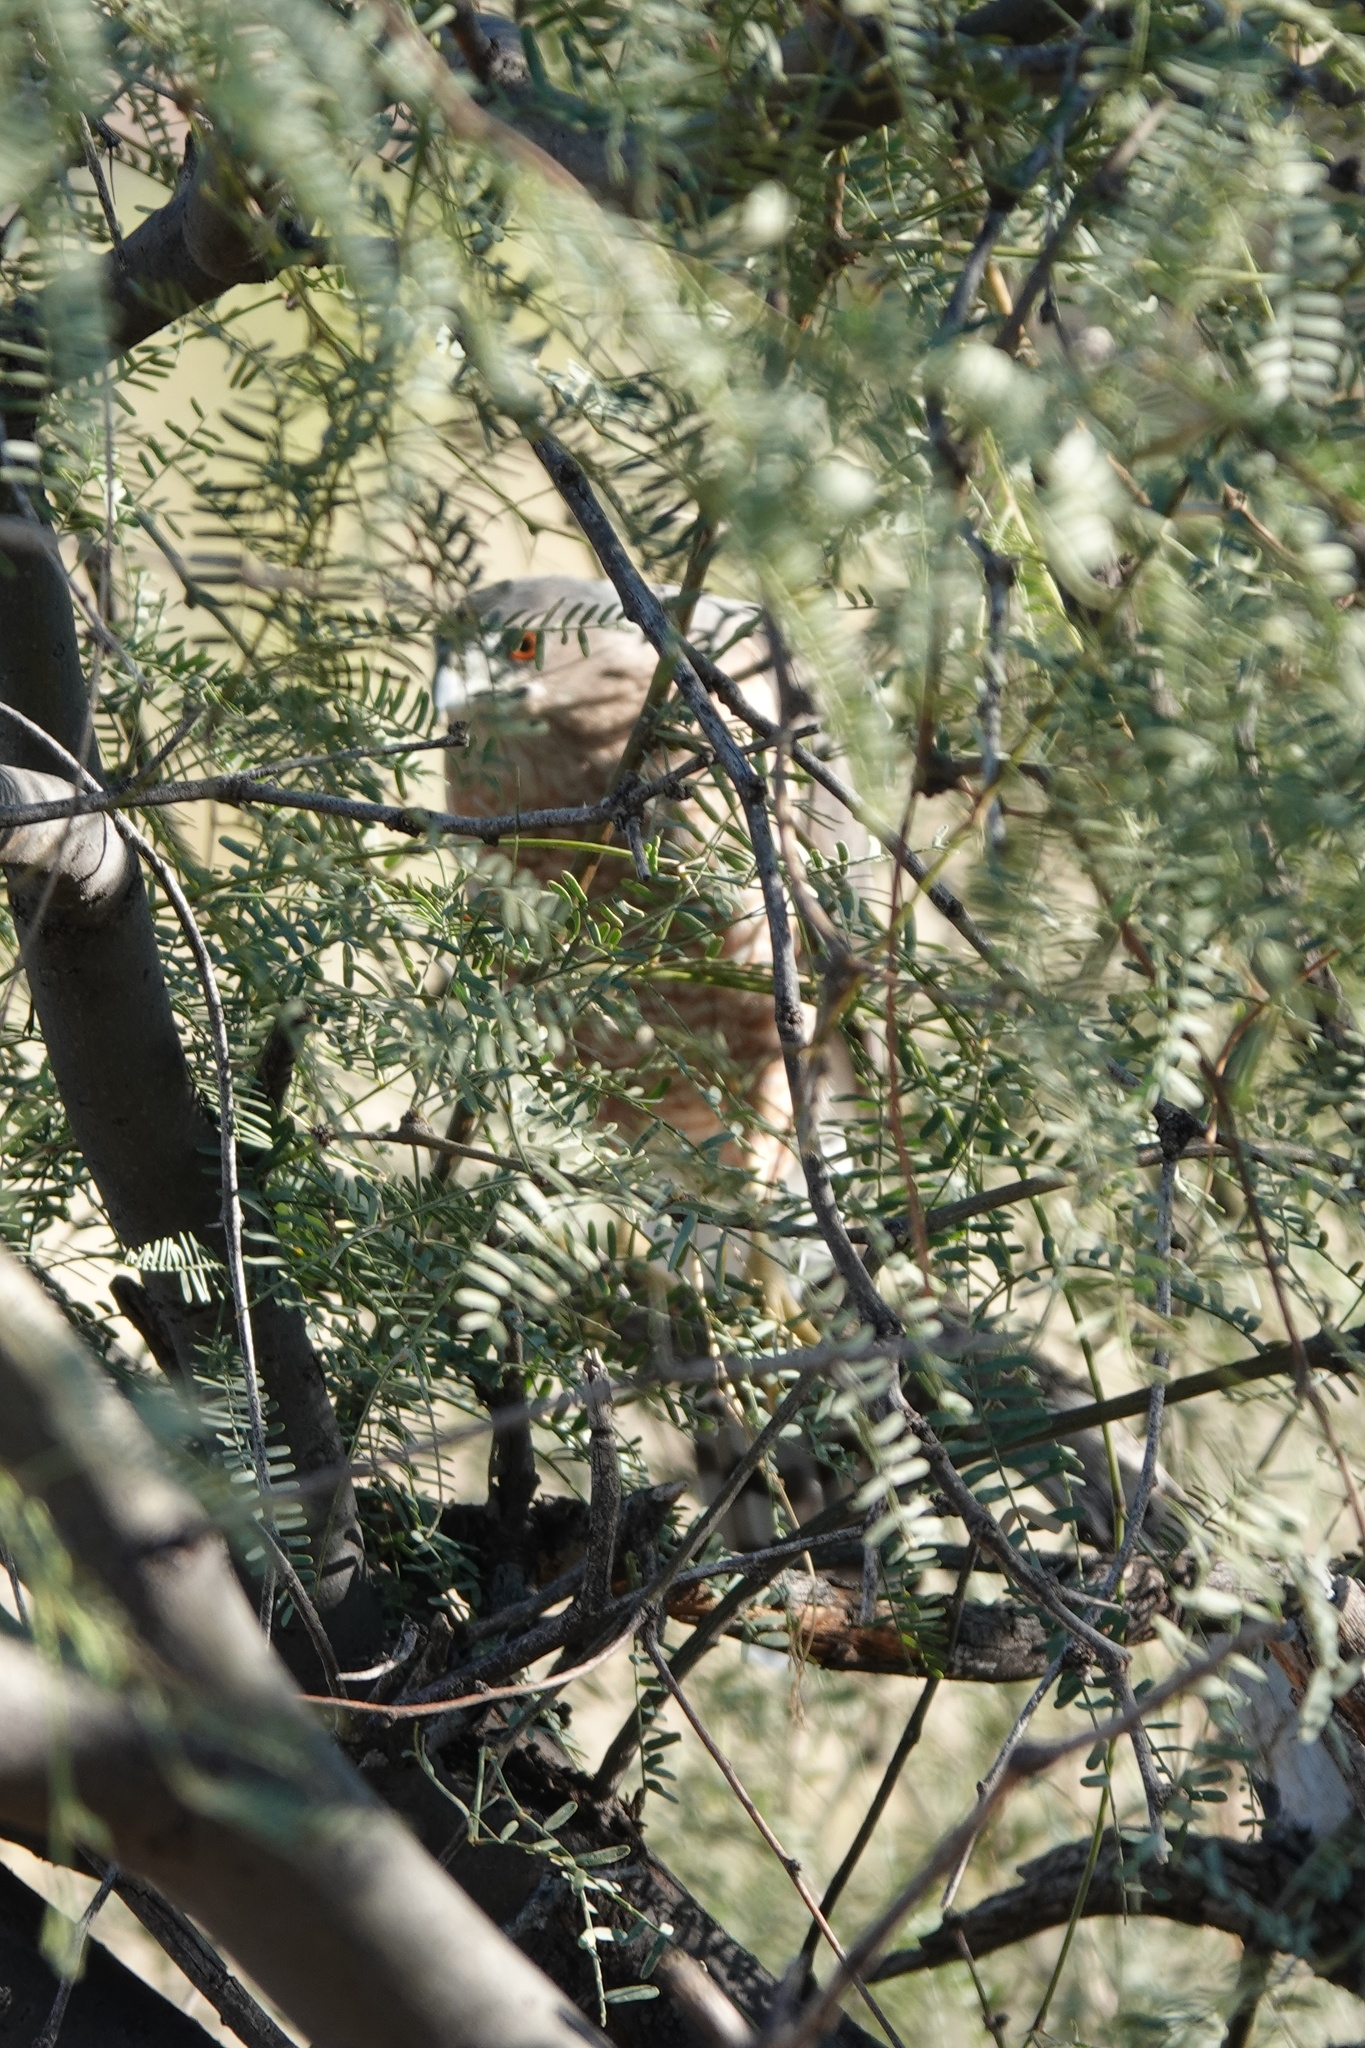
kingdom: Animalia
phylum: Chordata
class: Aves
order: Accipitriformes
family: Accipitridae
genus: Accipiter
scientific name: Accipiter cooperii
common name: Cooper's hawk
